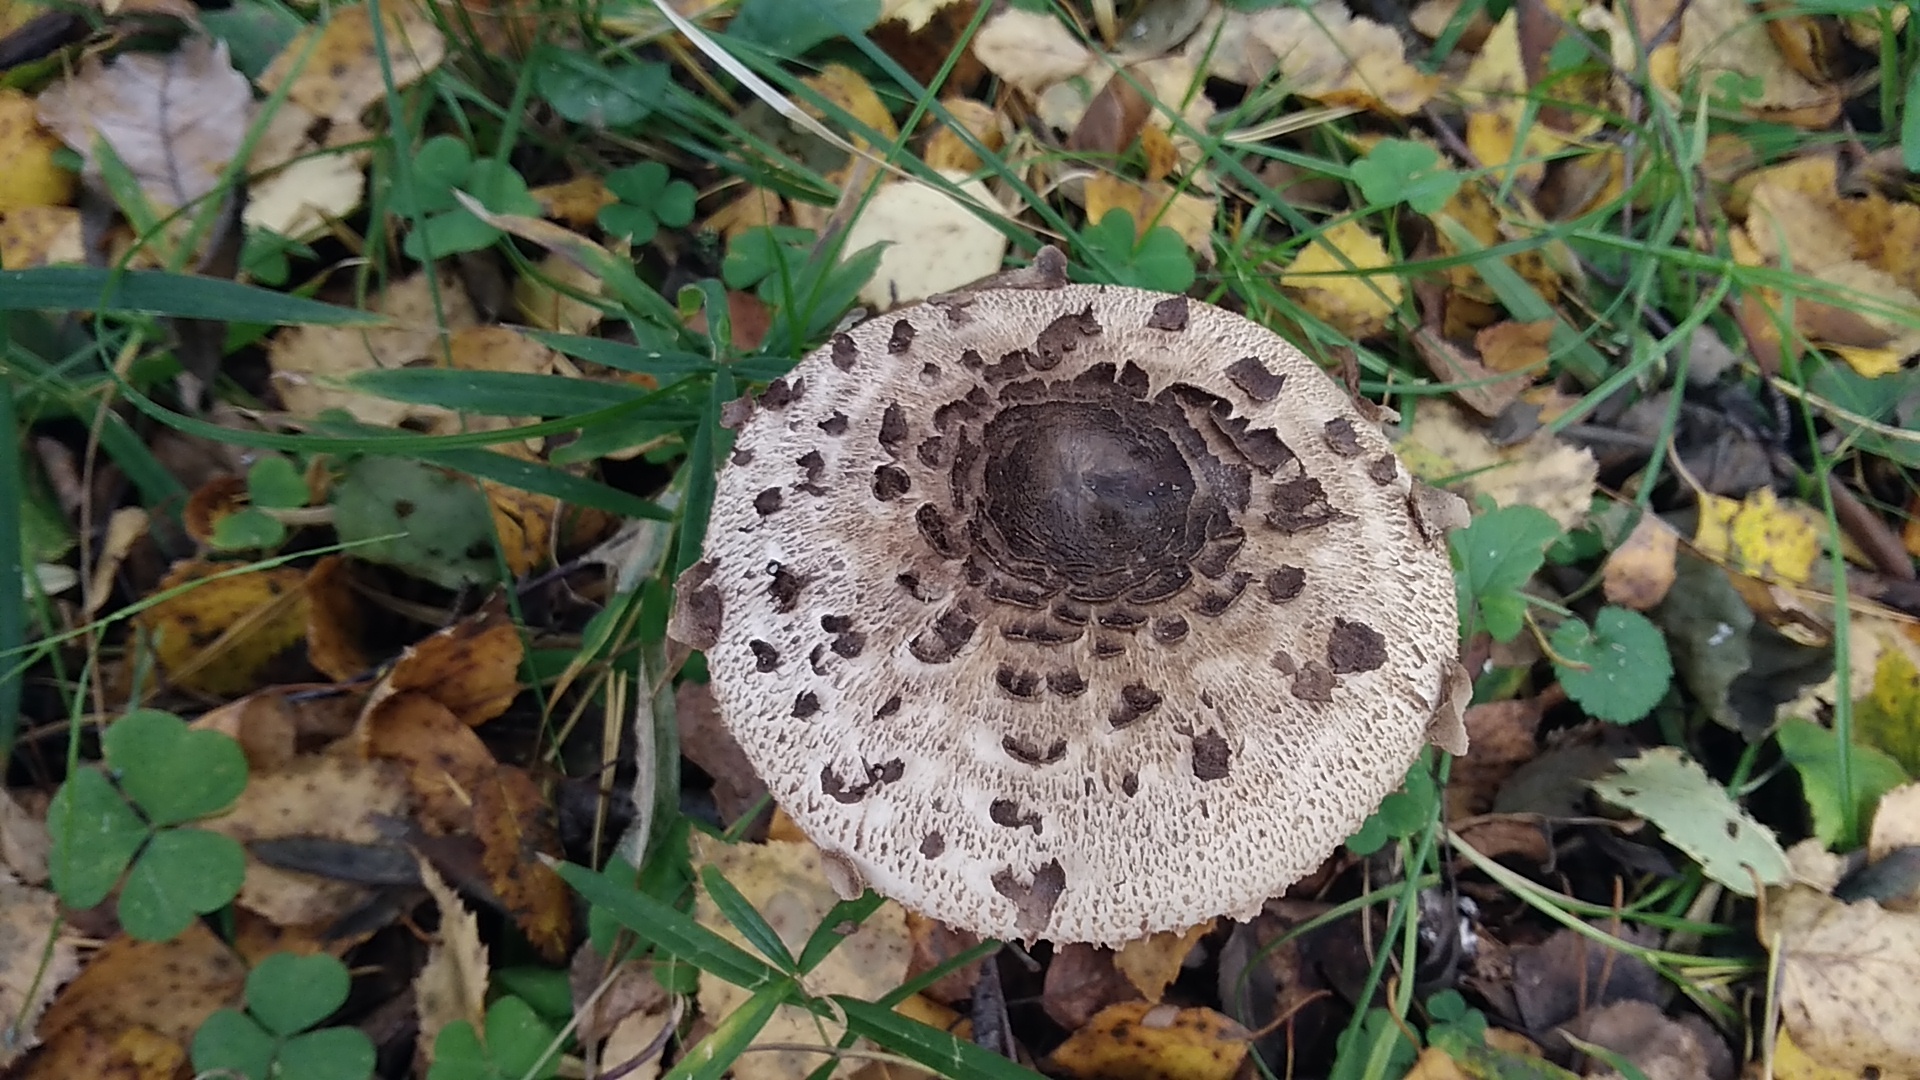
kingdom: Fungi
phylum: Basidiomycota
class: Agaricomycetes
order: Agaricales
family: Agaricaceae
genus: Macrolepiota
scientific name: Macrolepiota procera
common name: Parasol
